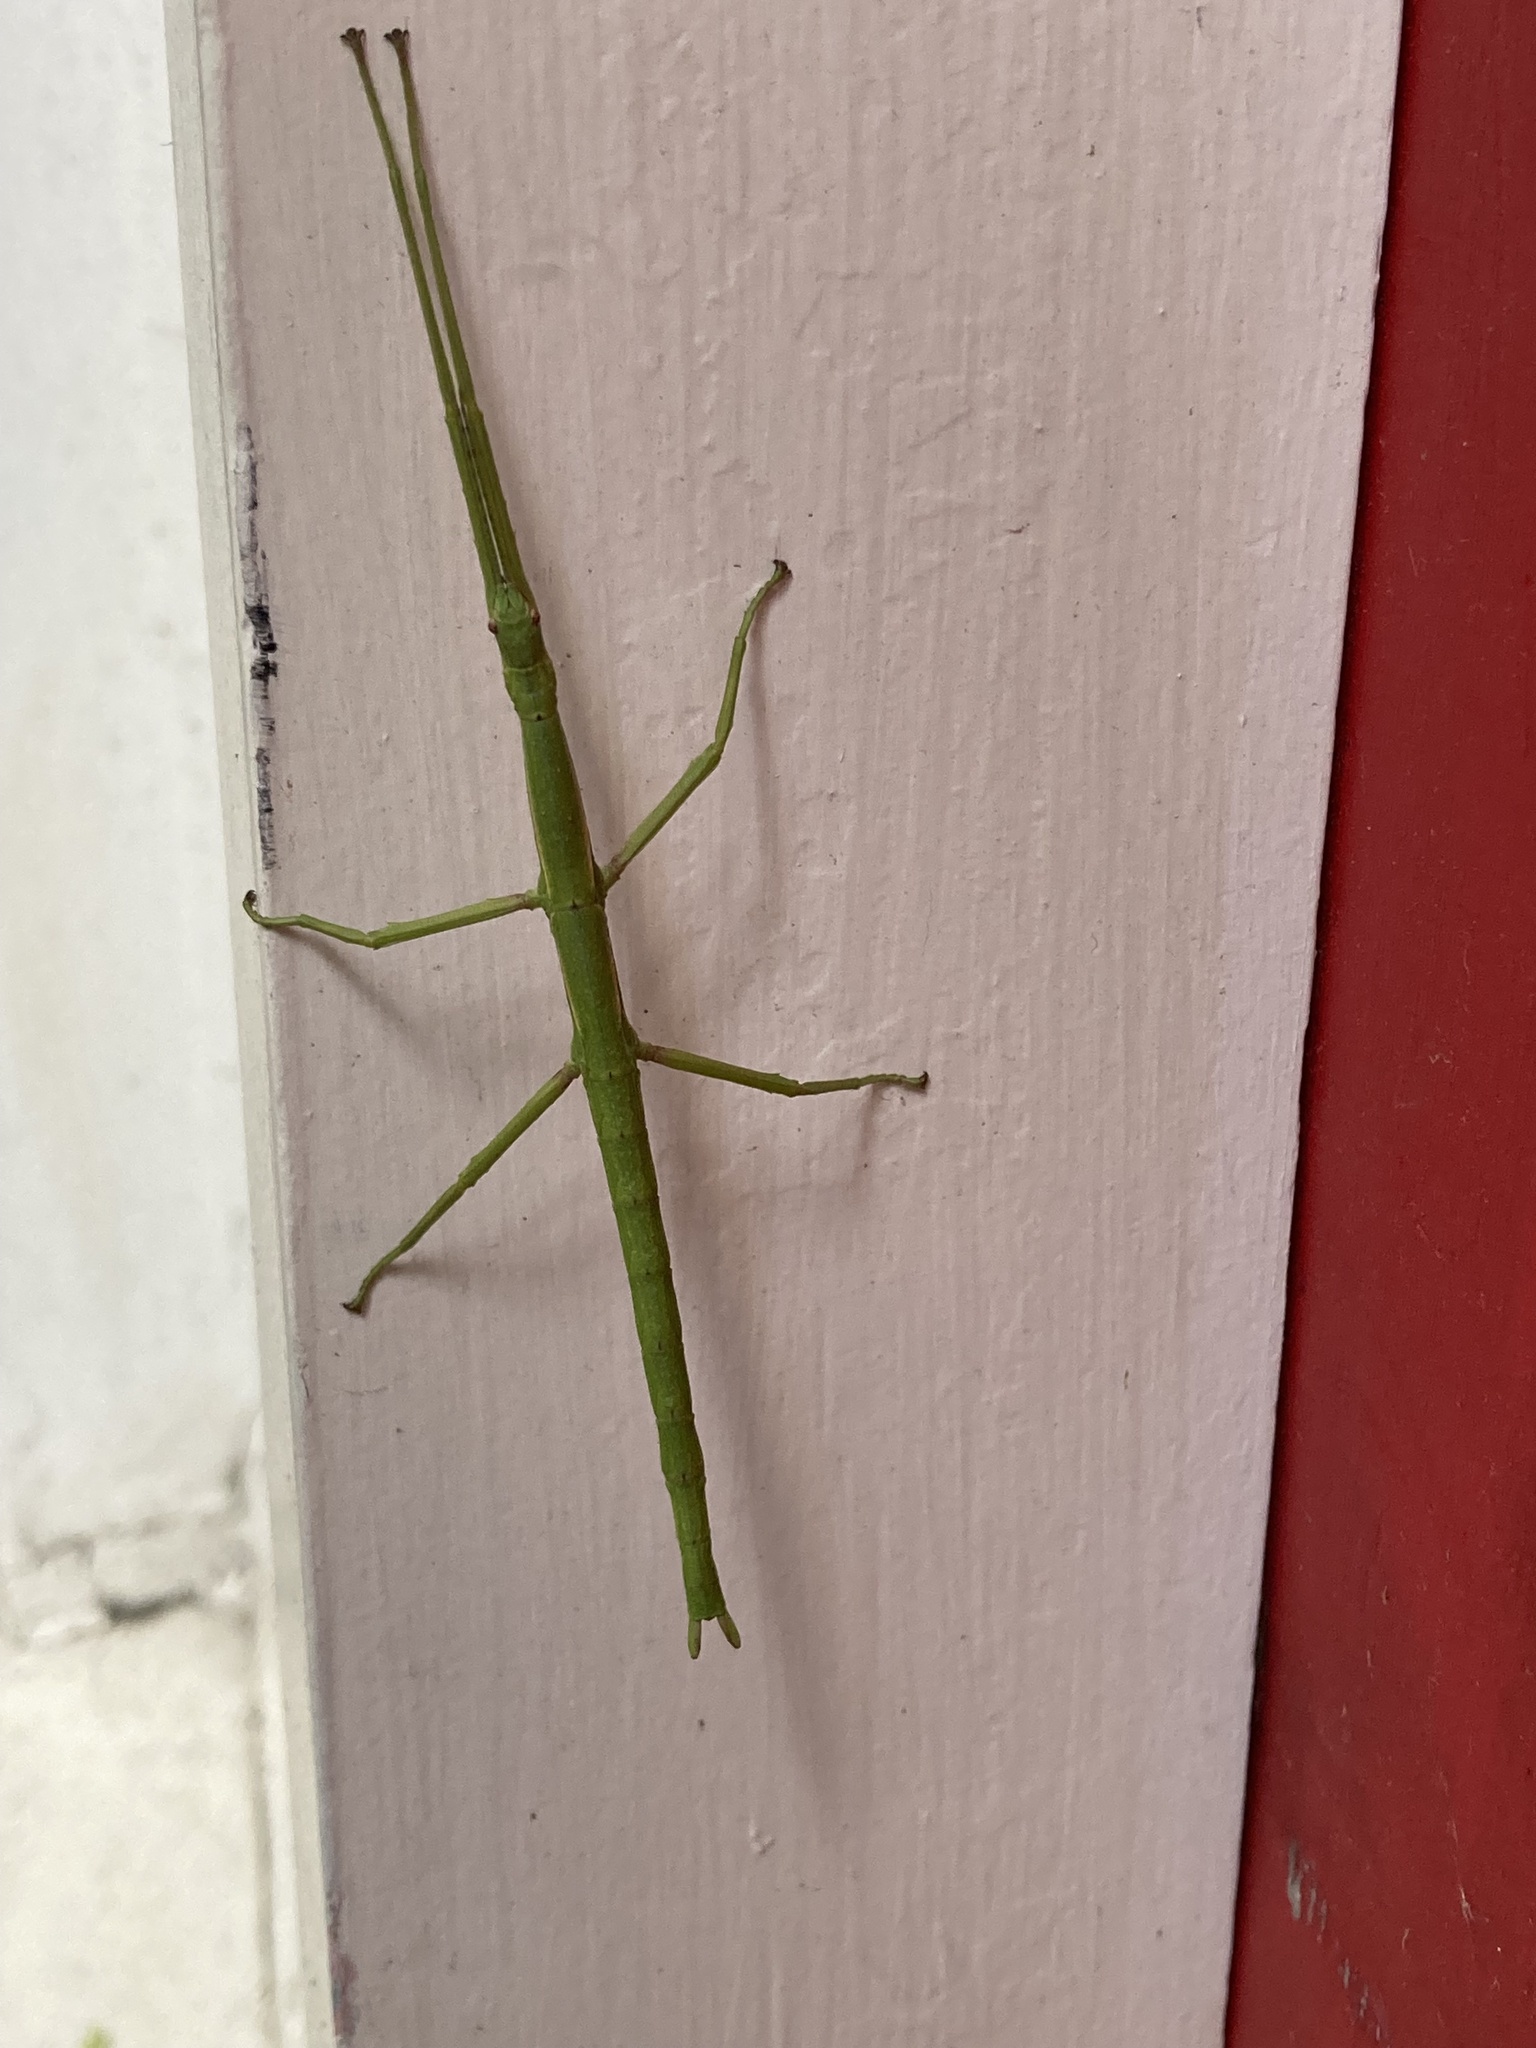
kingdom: Animalia
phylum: Arthropoda
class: Insecta
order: Phasmida
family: Phasmatidae
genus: Clitarchus
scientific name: Clitarchus hookeri
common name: Smooth stick insect
